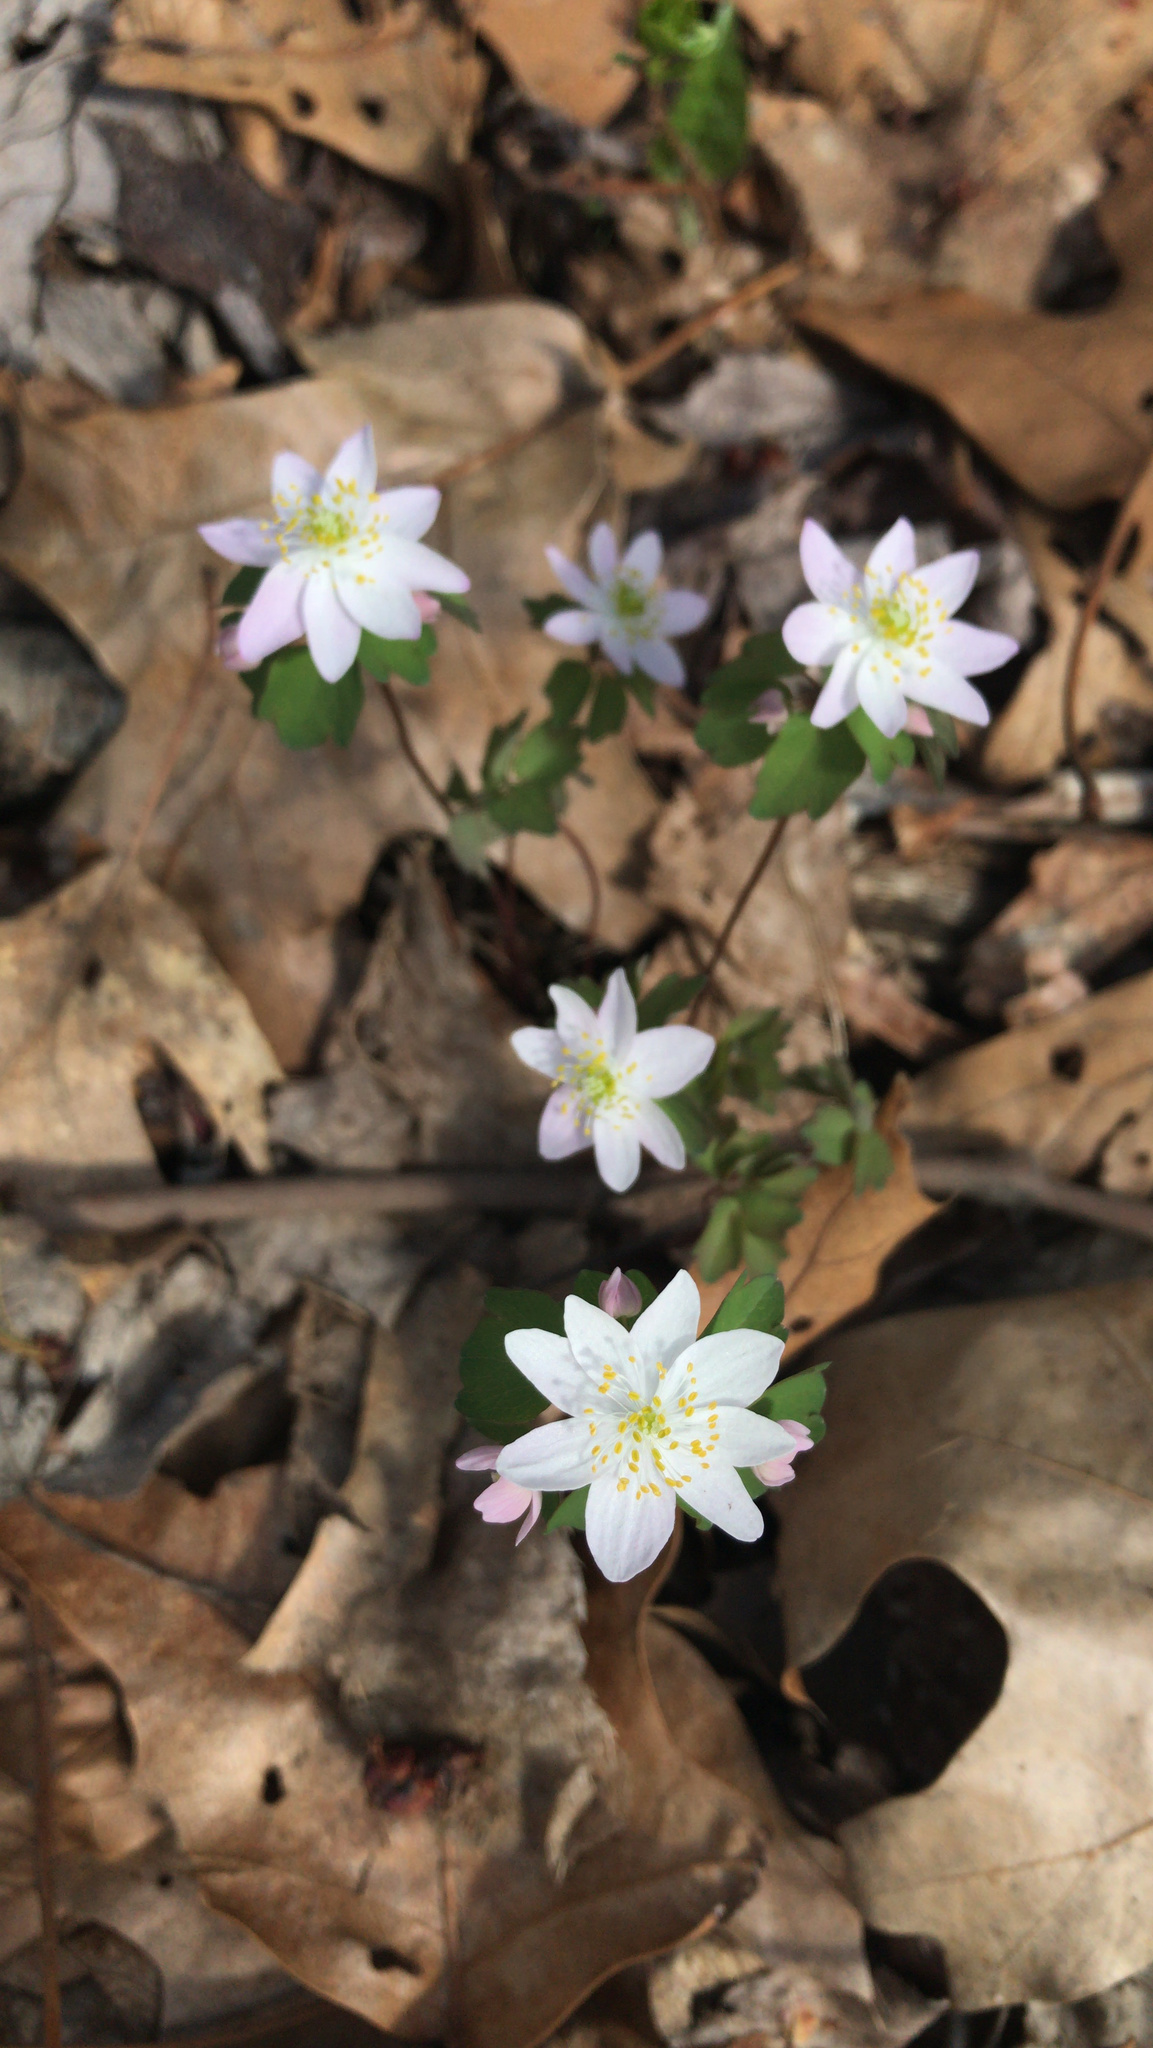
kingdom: Plantae
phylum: Tracheophyta
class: Magnoliopsida
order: Ranunculales
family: Ranunculaceae
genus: Thalictrum
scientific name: Thalictrum thalictroides
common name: Rue-anemone
